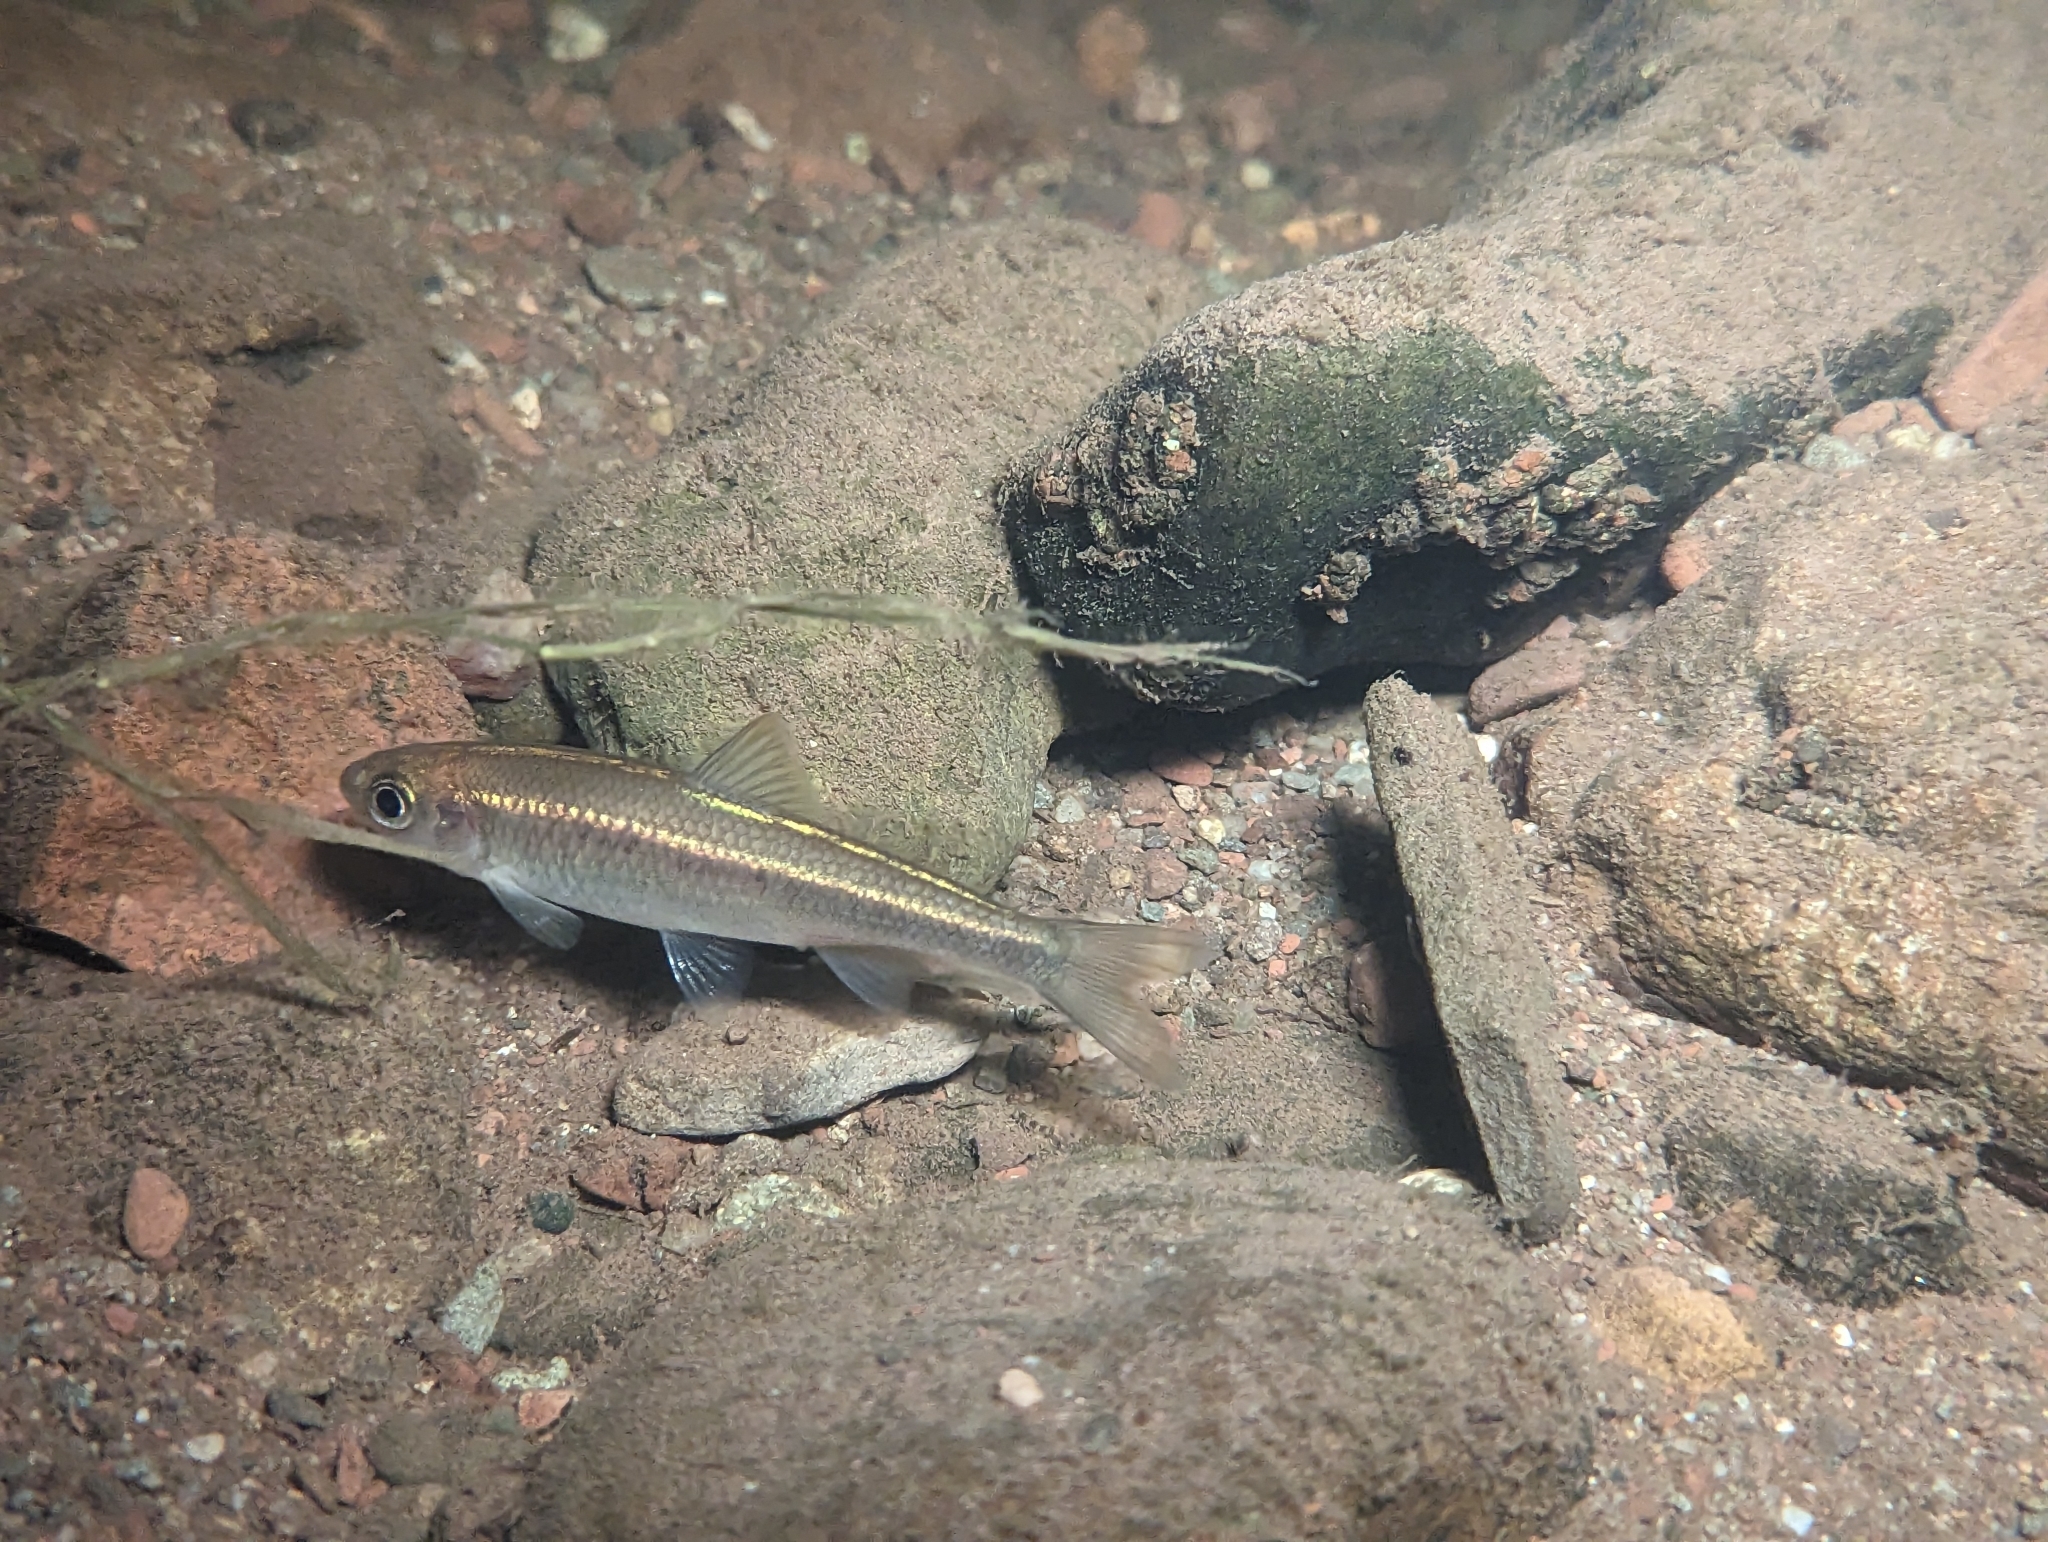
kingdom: Animalia
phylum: Chordata
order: Cypriniformes
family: Cyprinidae
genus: Luxilus
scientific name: Luxilus cornutus
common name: Common shiner
